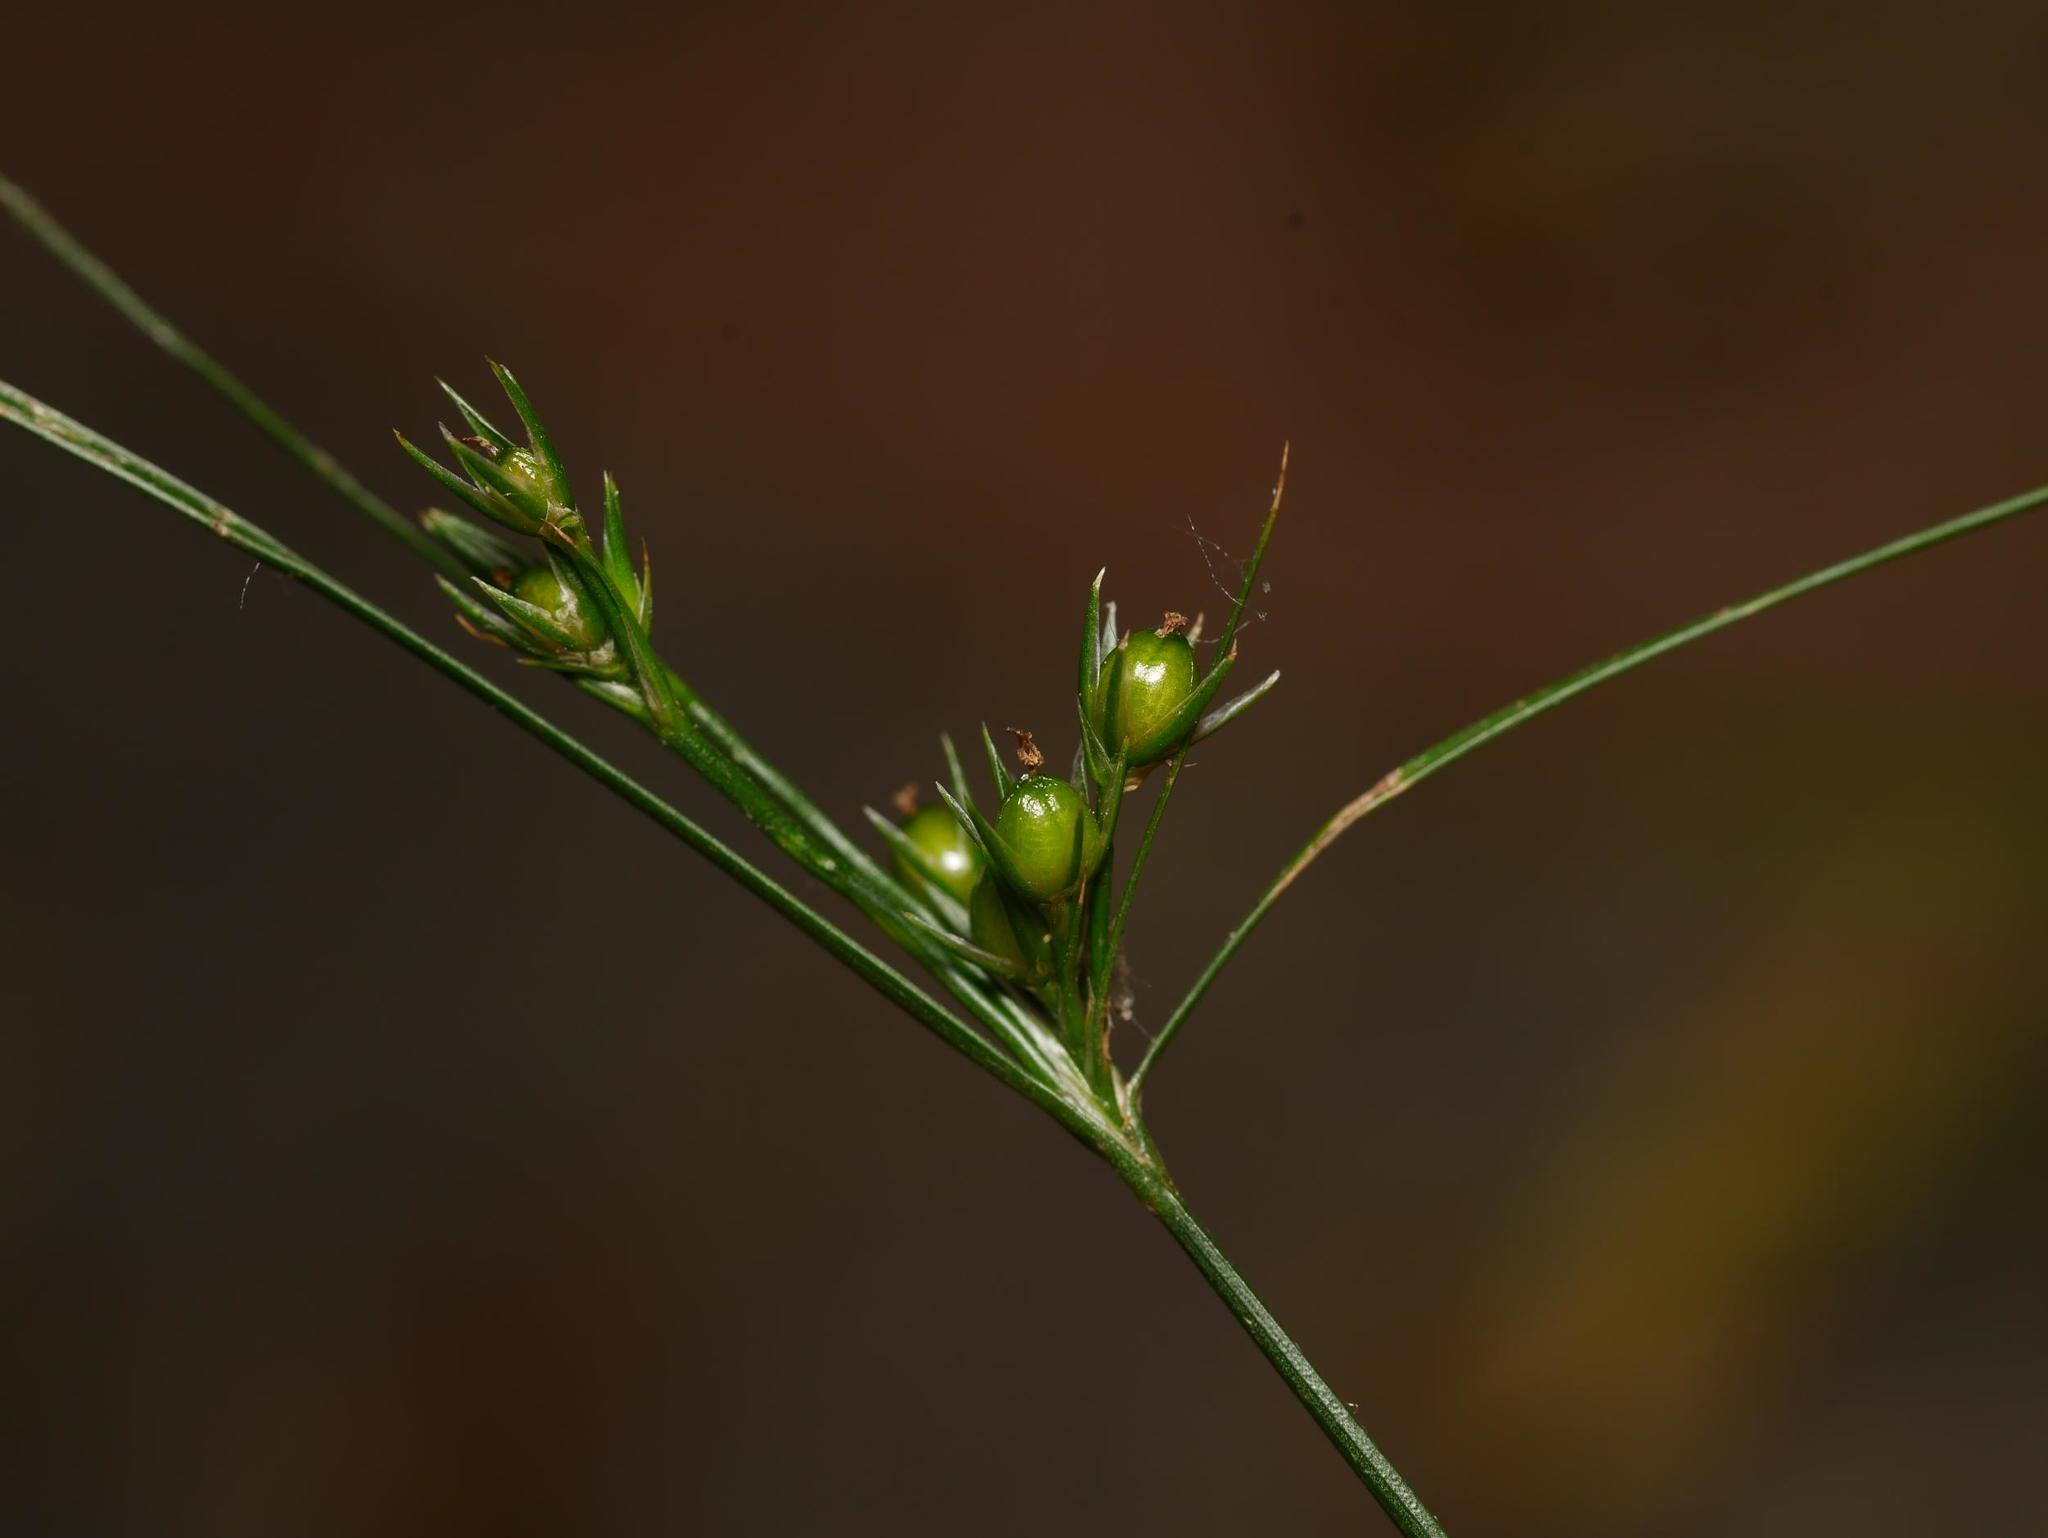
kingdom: Plantae
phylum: Tracheophyta
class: Liliopsida
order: Poales
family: Juncaceae
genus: Juncus
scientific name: Juncus tenuis
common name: Slender rush
